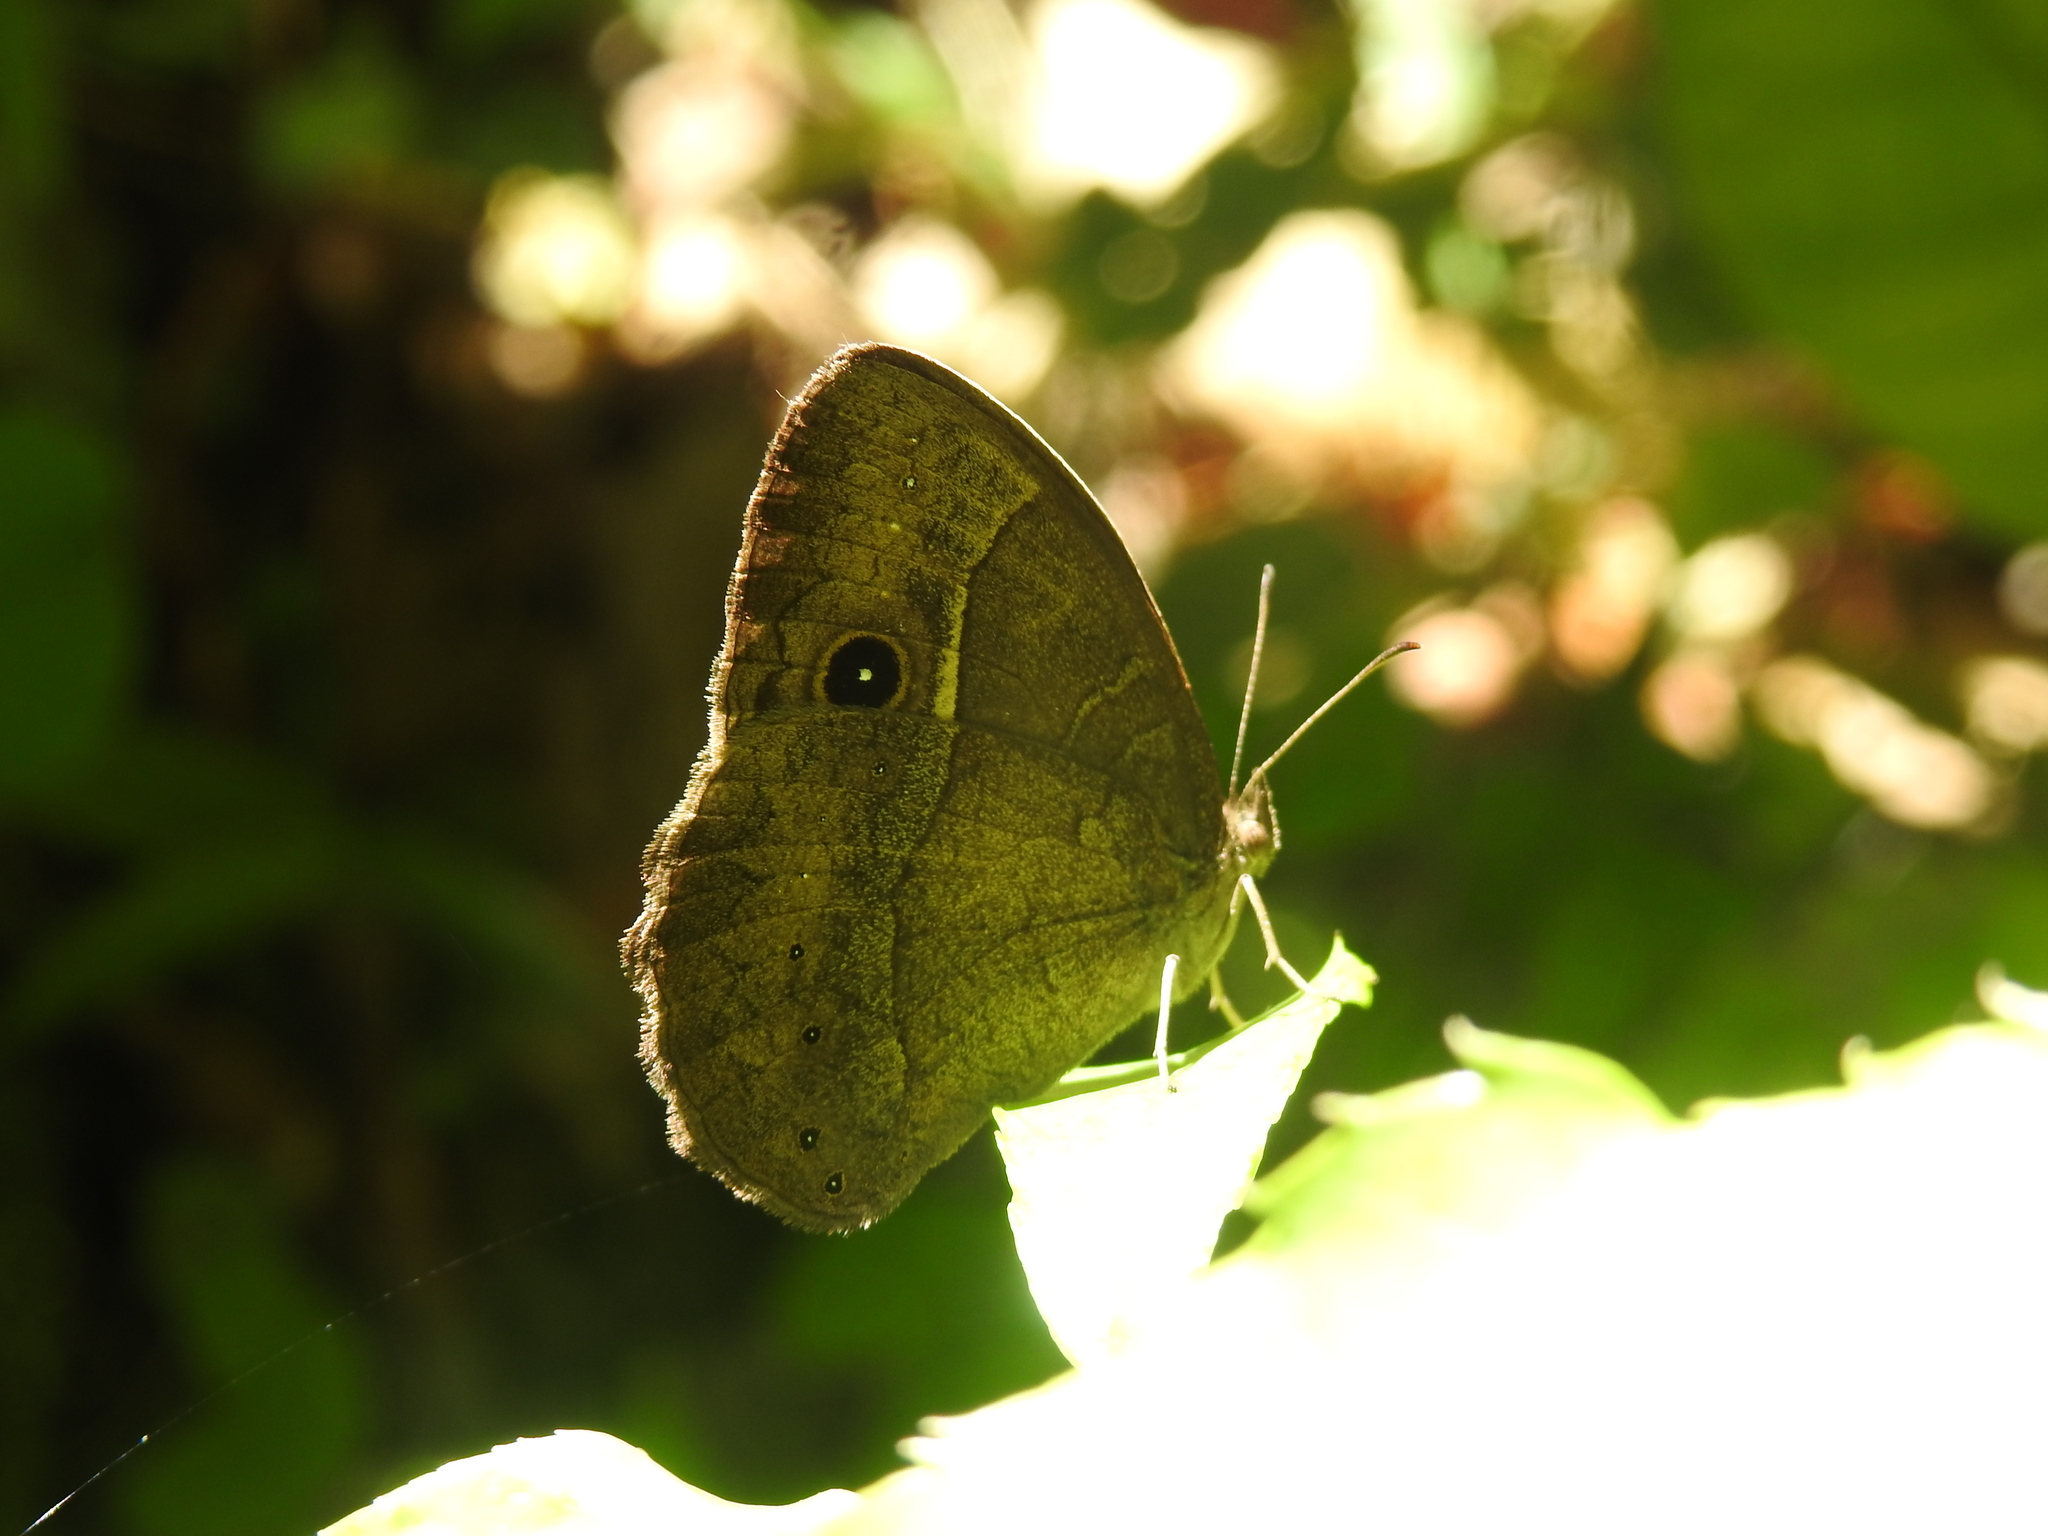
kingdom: Animalia
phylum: Arthropoda
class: Insecta
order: Lepidoptera
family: Nymphalidae
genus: Mycalesis
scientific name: Mycalesis rhacotis
